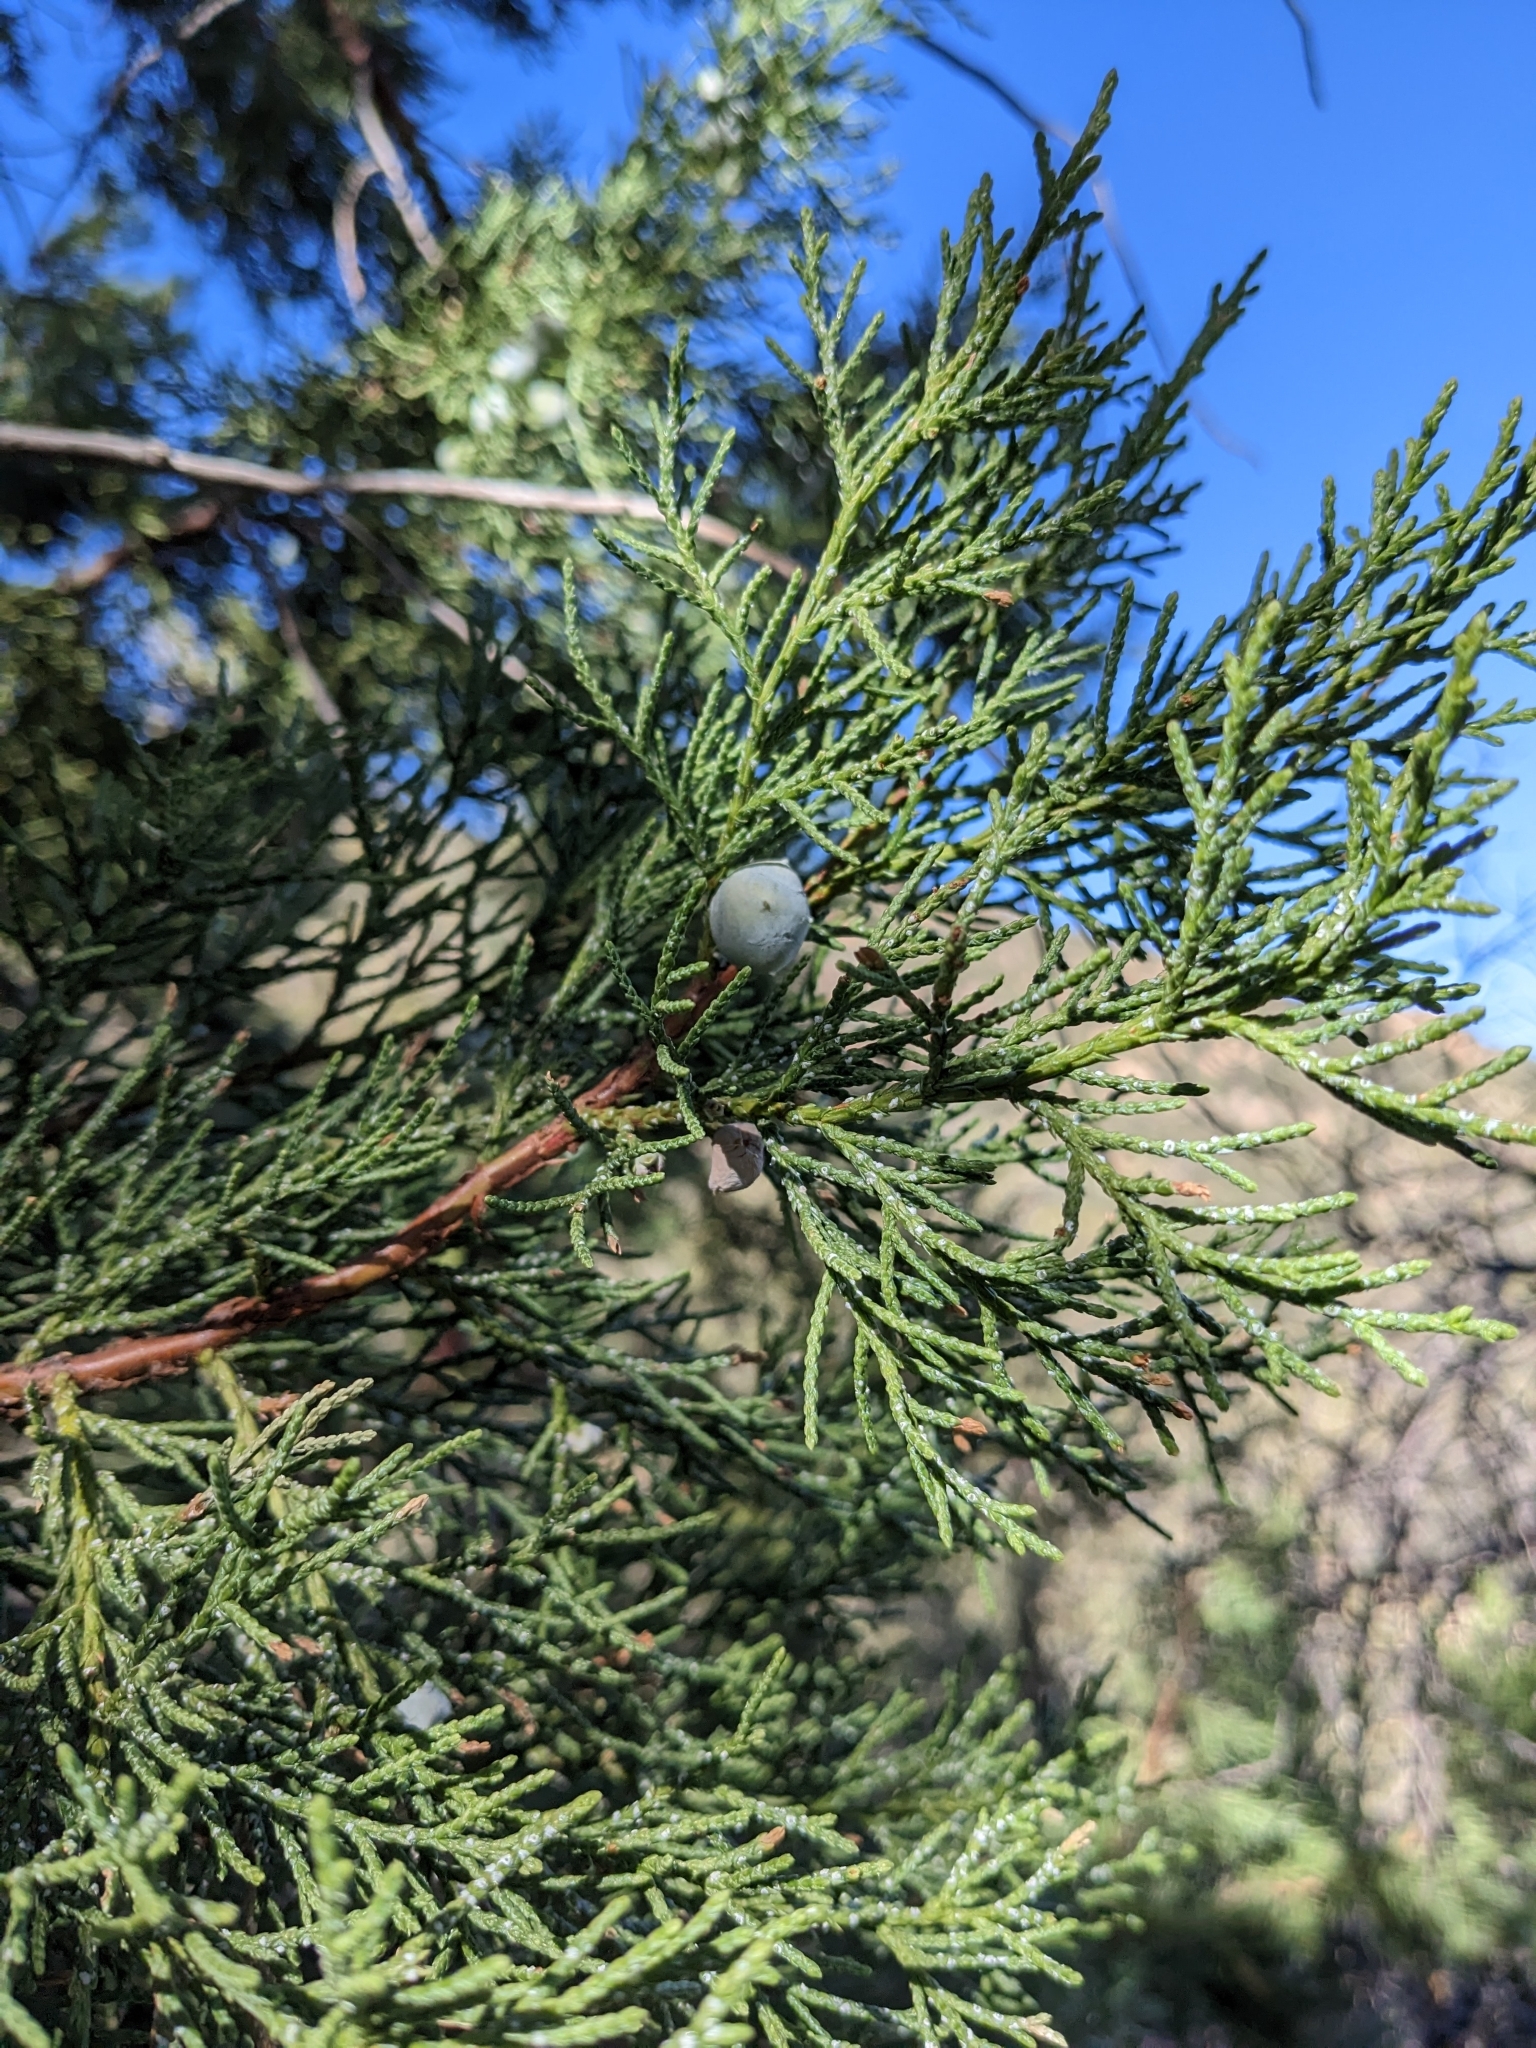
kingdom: Plantae
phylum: Tracheophyta
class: Pinopsida
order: Pinales
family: Cupressaceae
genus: Juniperus
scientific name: Juniperus deppeana
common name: Alligator juniper
